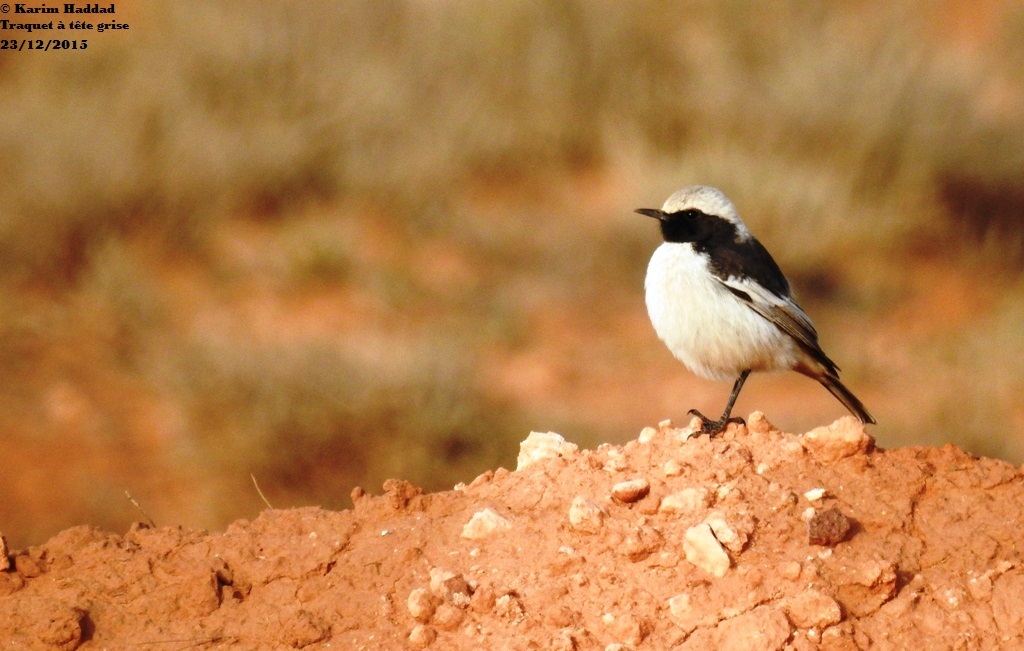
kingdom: Animalia
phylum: Chordata
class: Aves
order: Passeriformes
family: Muscicapidae
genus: Oenanthe
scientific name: Oenanthe moesta
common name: Red-rumped wheatear
